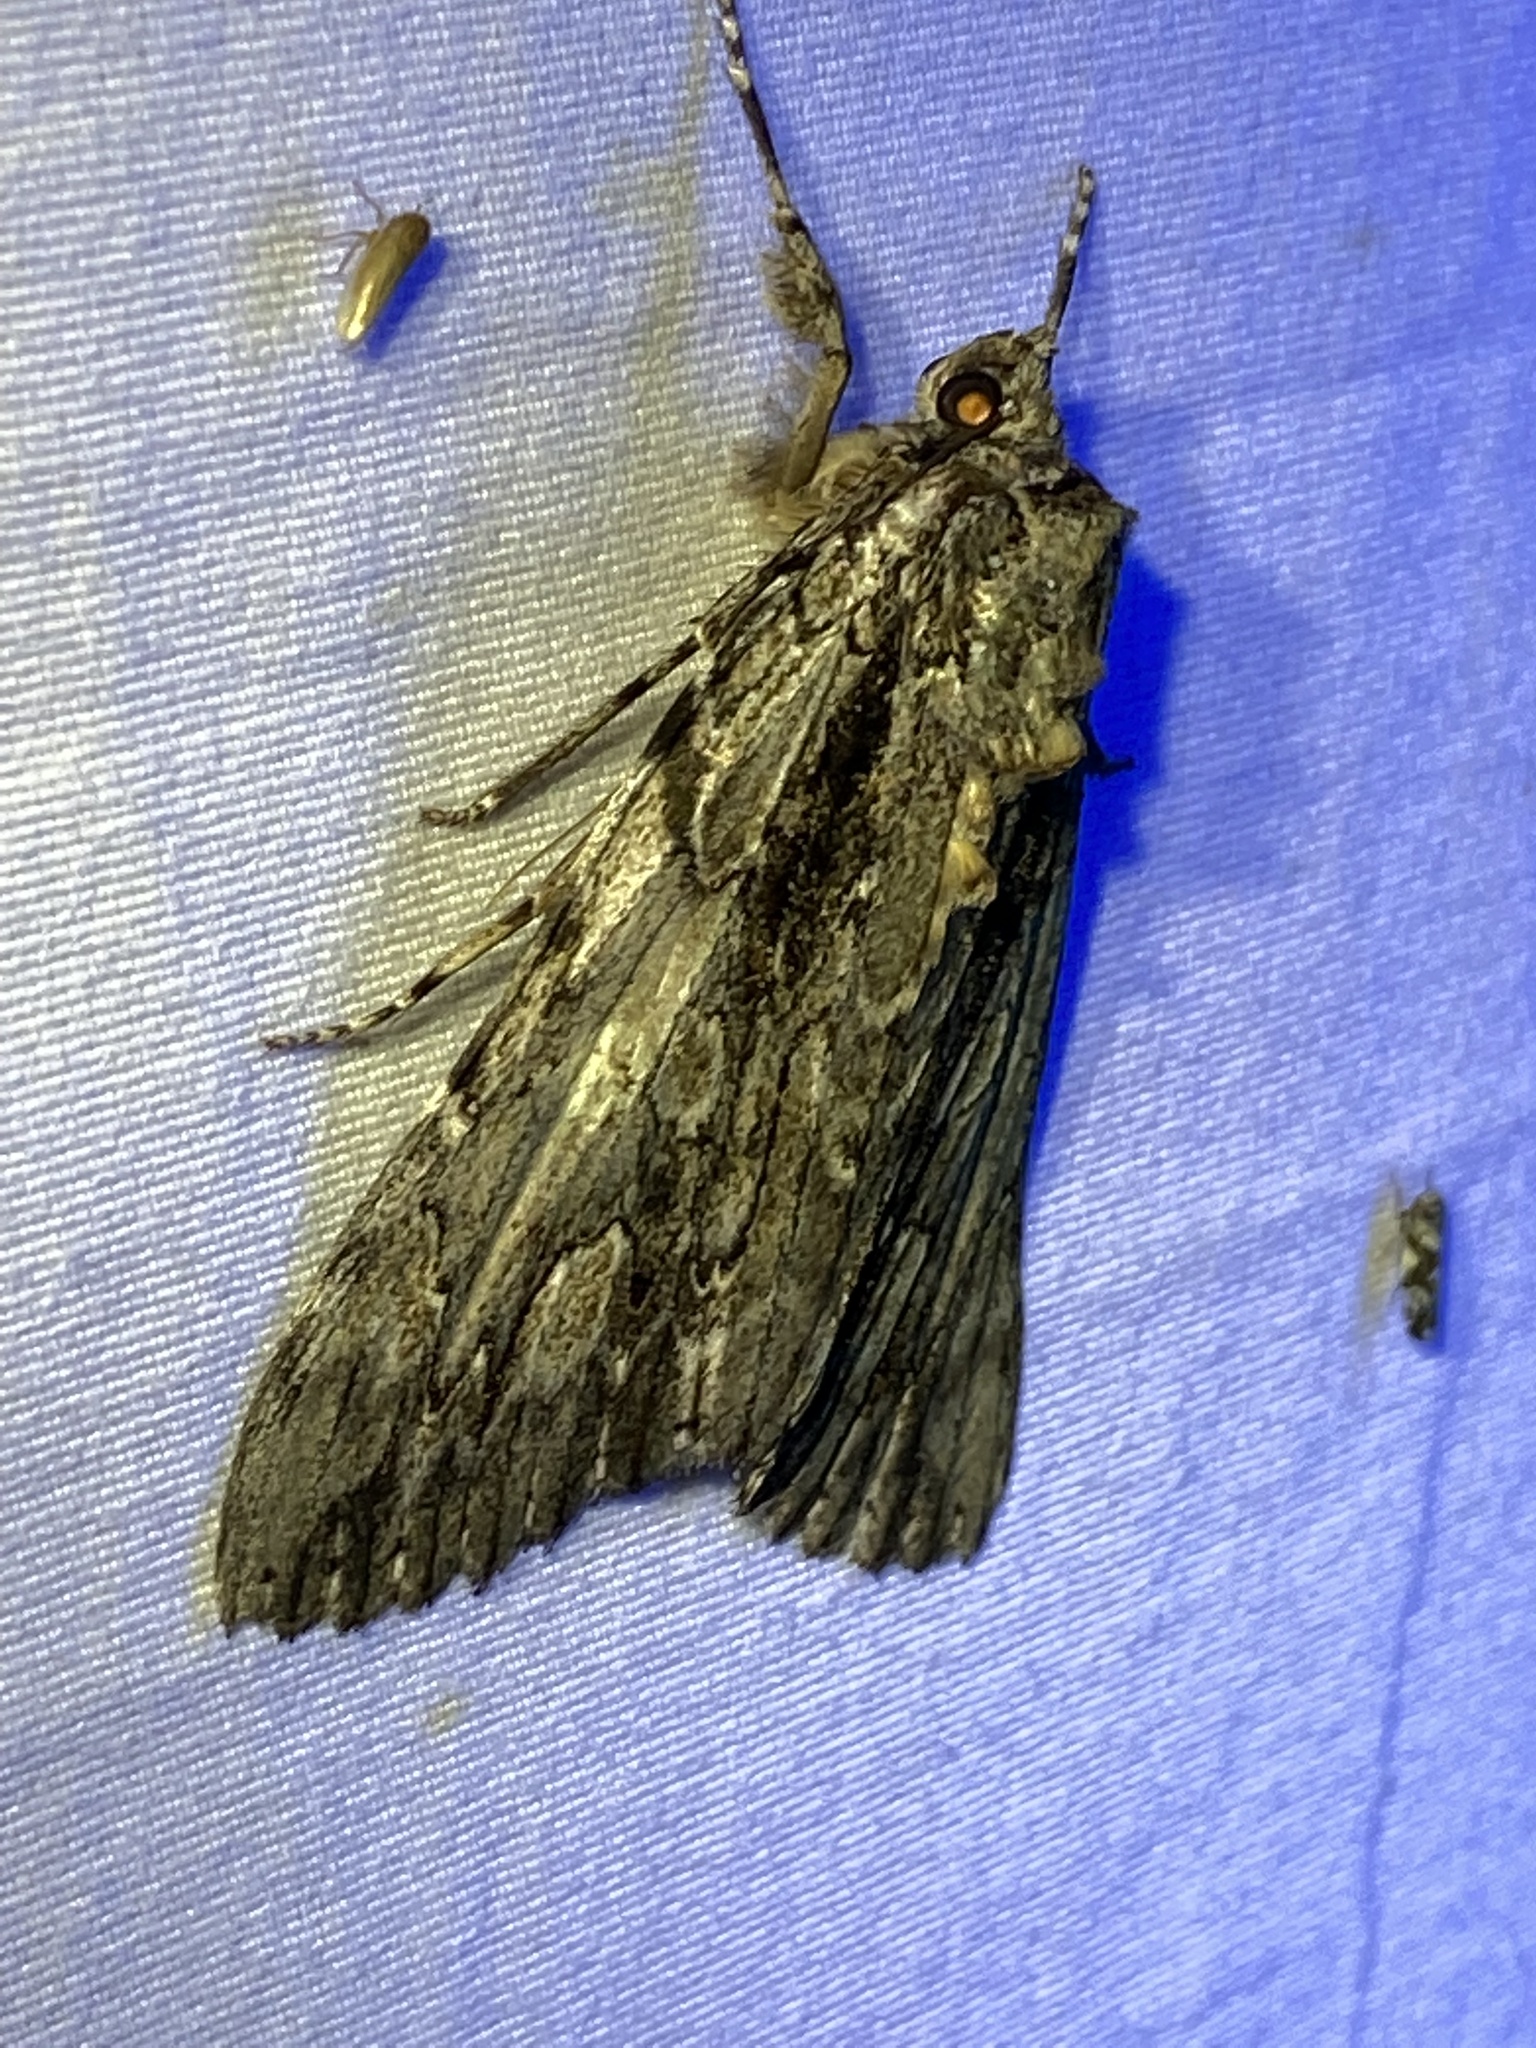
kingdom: Animalia
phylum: Arthropoda
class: Insecta
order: Lepidoptera
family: Erebidae
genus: Catocala
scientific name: Catocala coccinata
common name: Scarlet underwing
